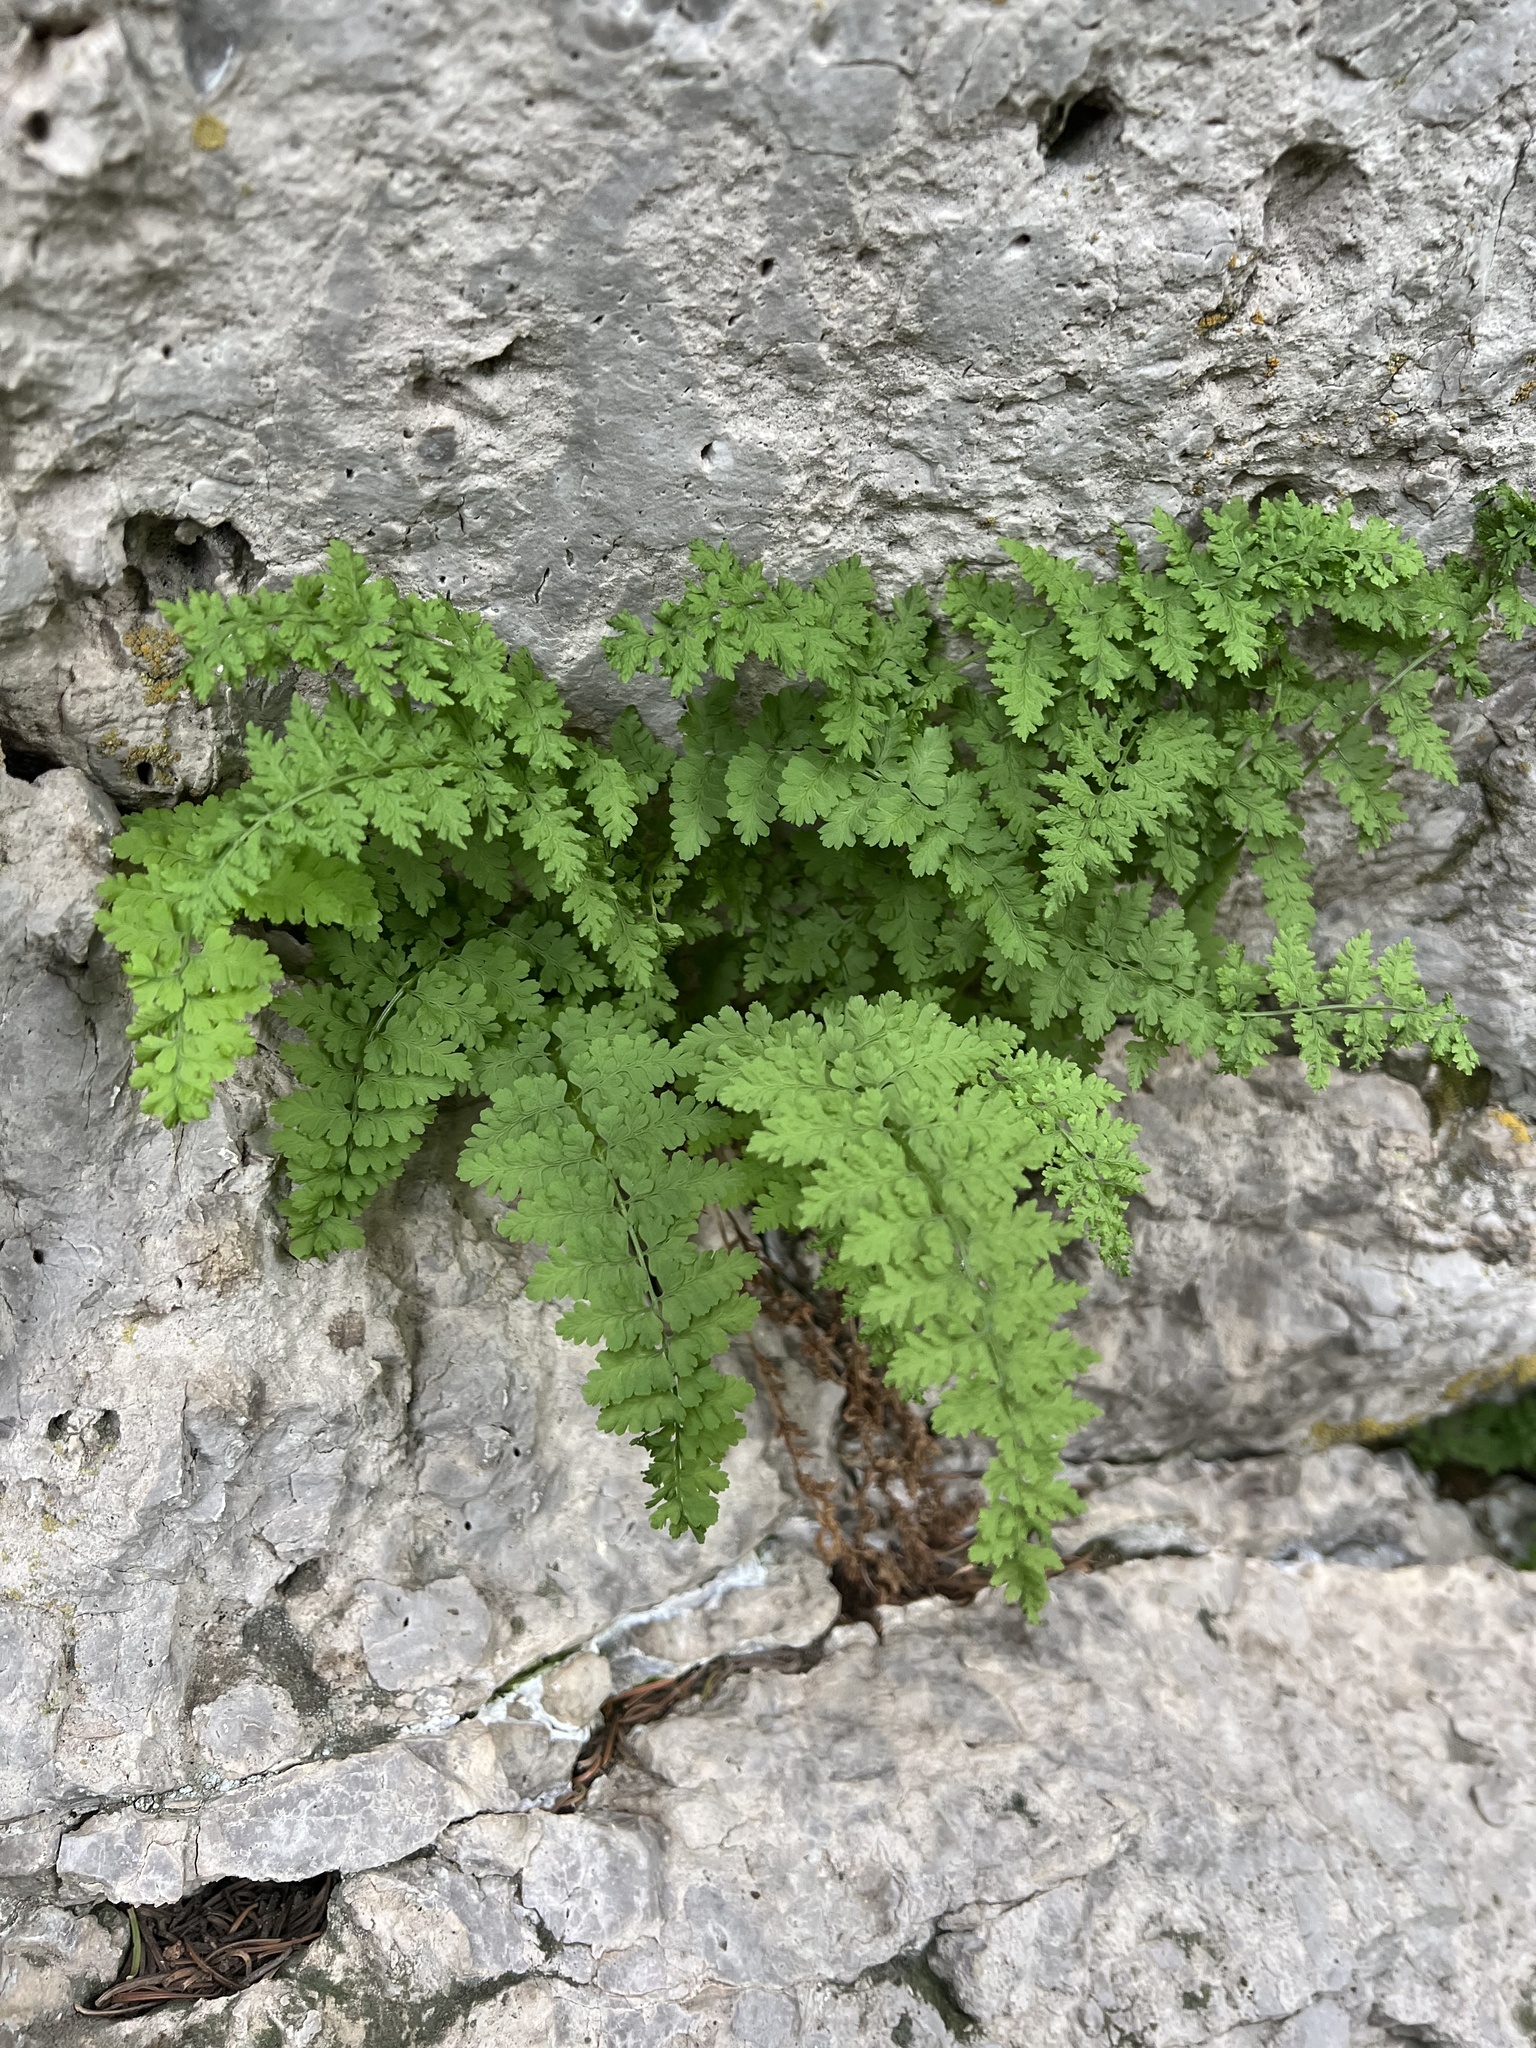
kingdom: Plantae
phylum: Tracheophyta
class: Polypodiopsida
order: Polypodiales
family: Cystopteridaceae
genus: Cystopteris
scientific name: Cystopteris fragilis
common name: Brittle bladder fern
